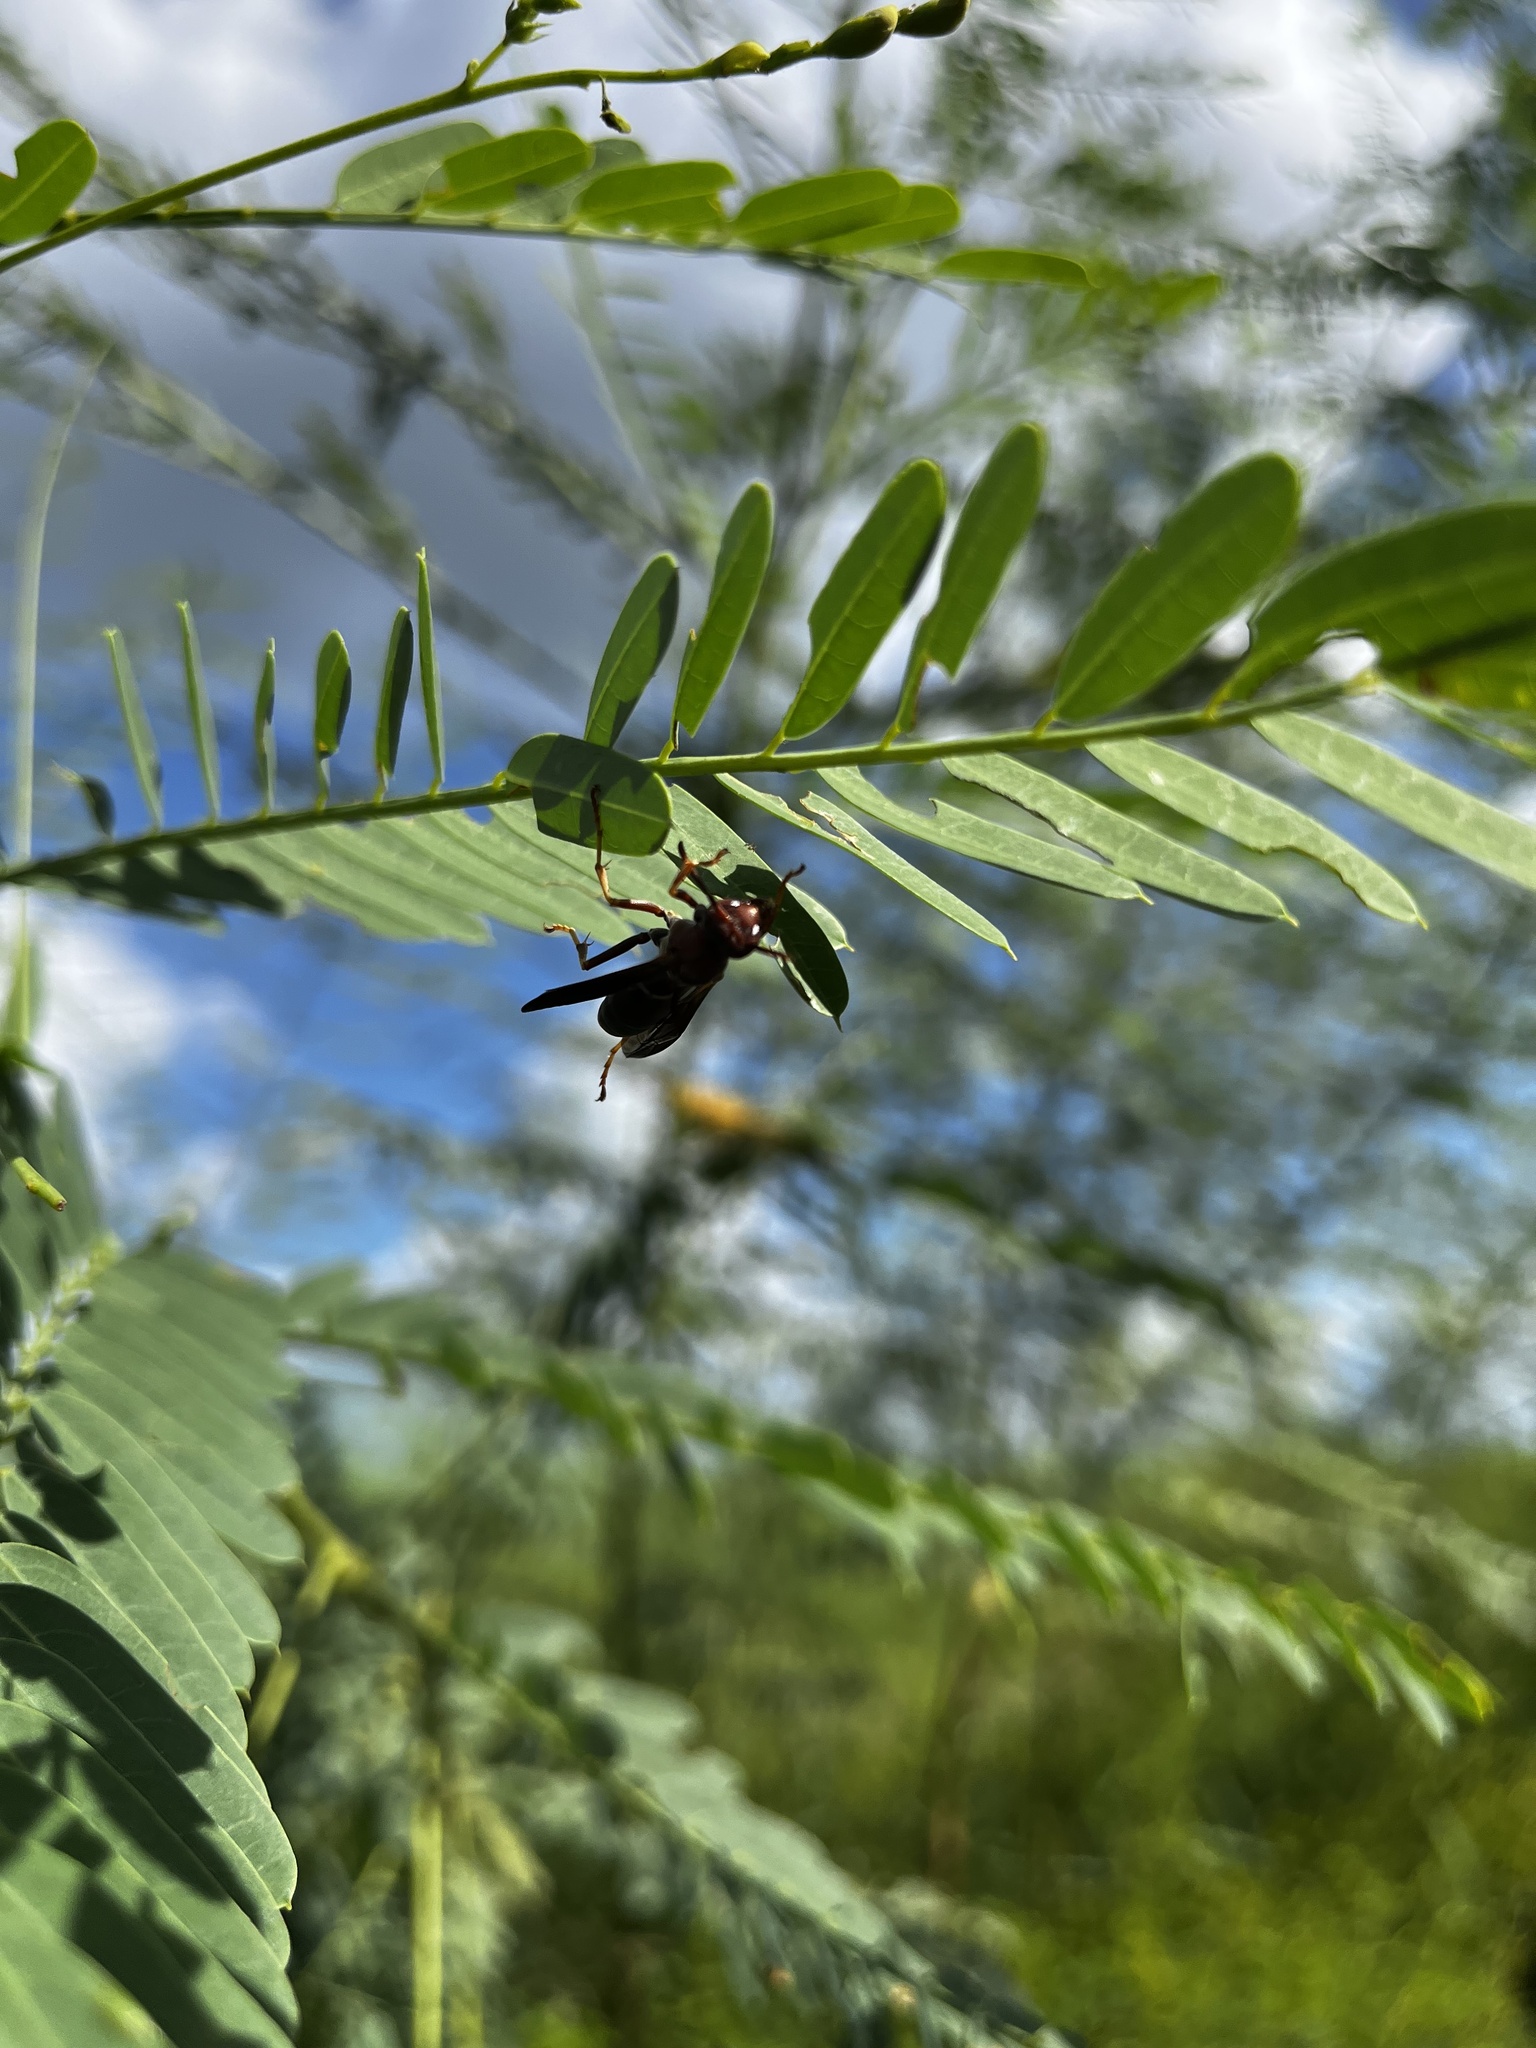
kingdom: Animalia
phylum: Arthropoda
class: Insecta
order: Hymenoptera
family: Eumenidae
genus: Polistes
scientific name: Polistes metricus
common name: Metric paper wasp
